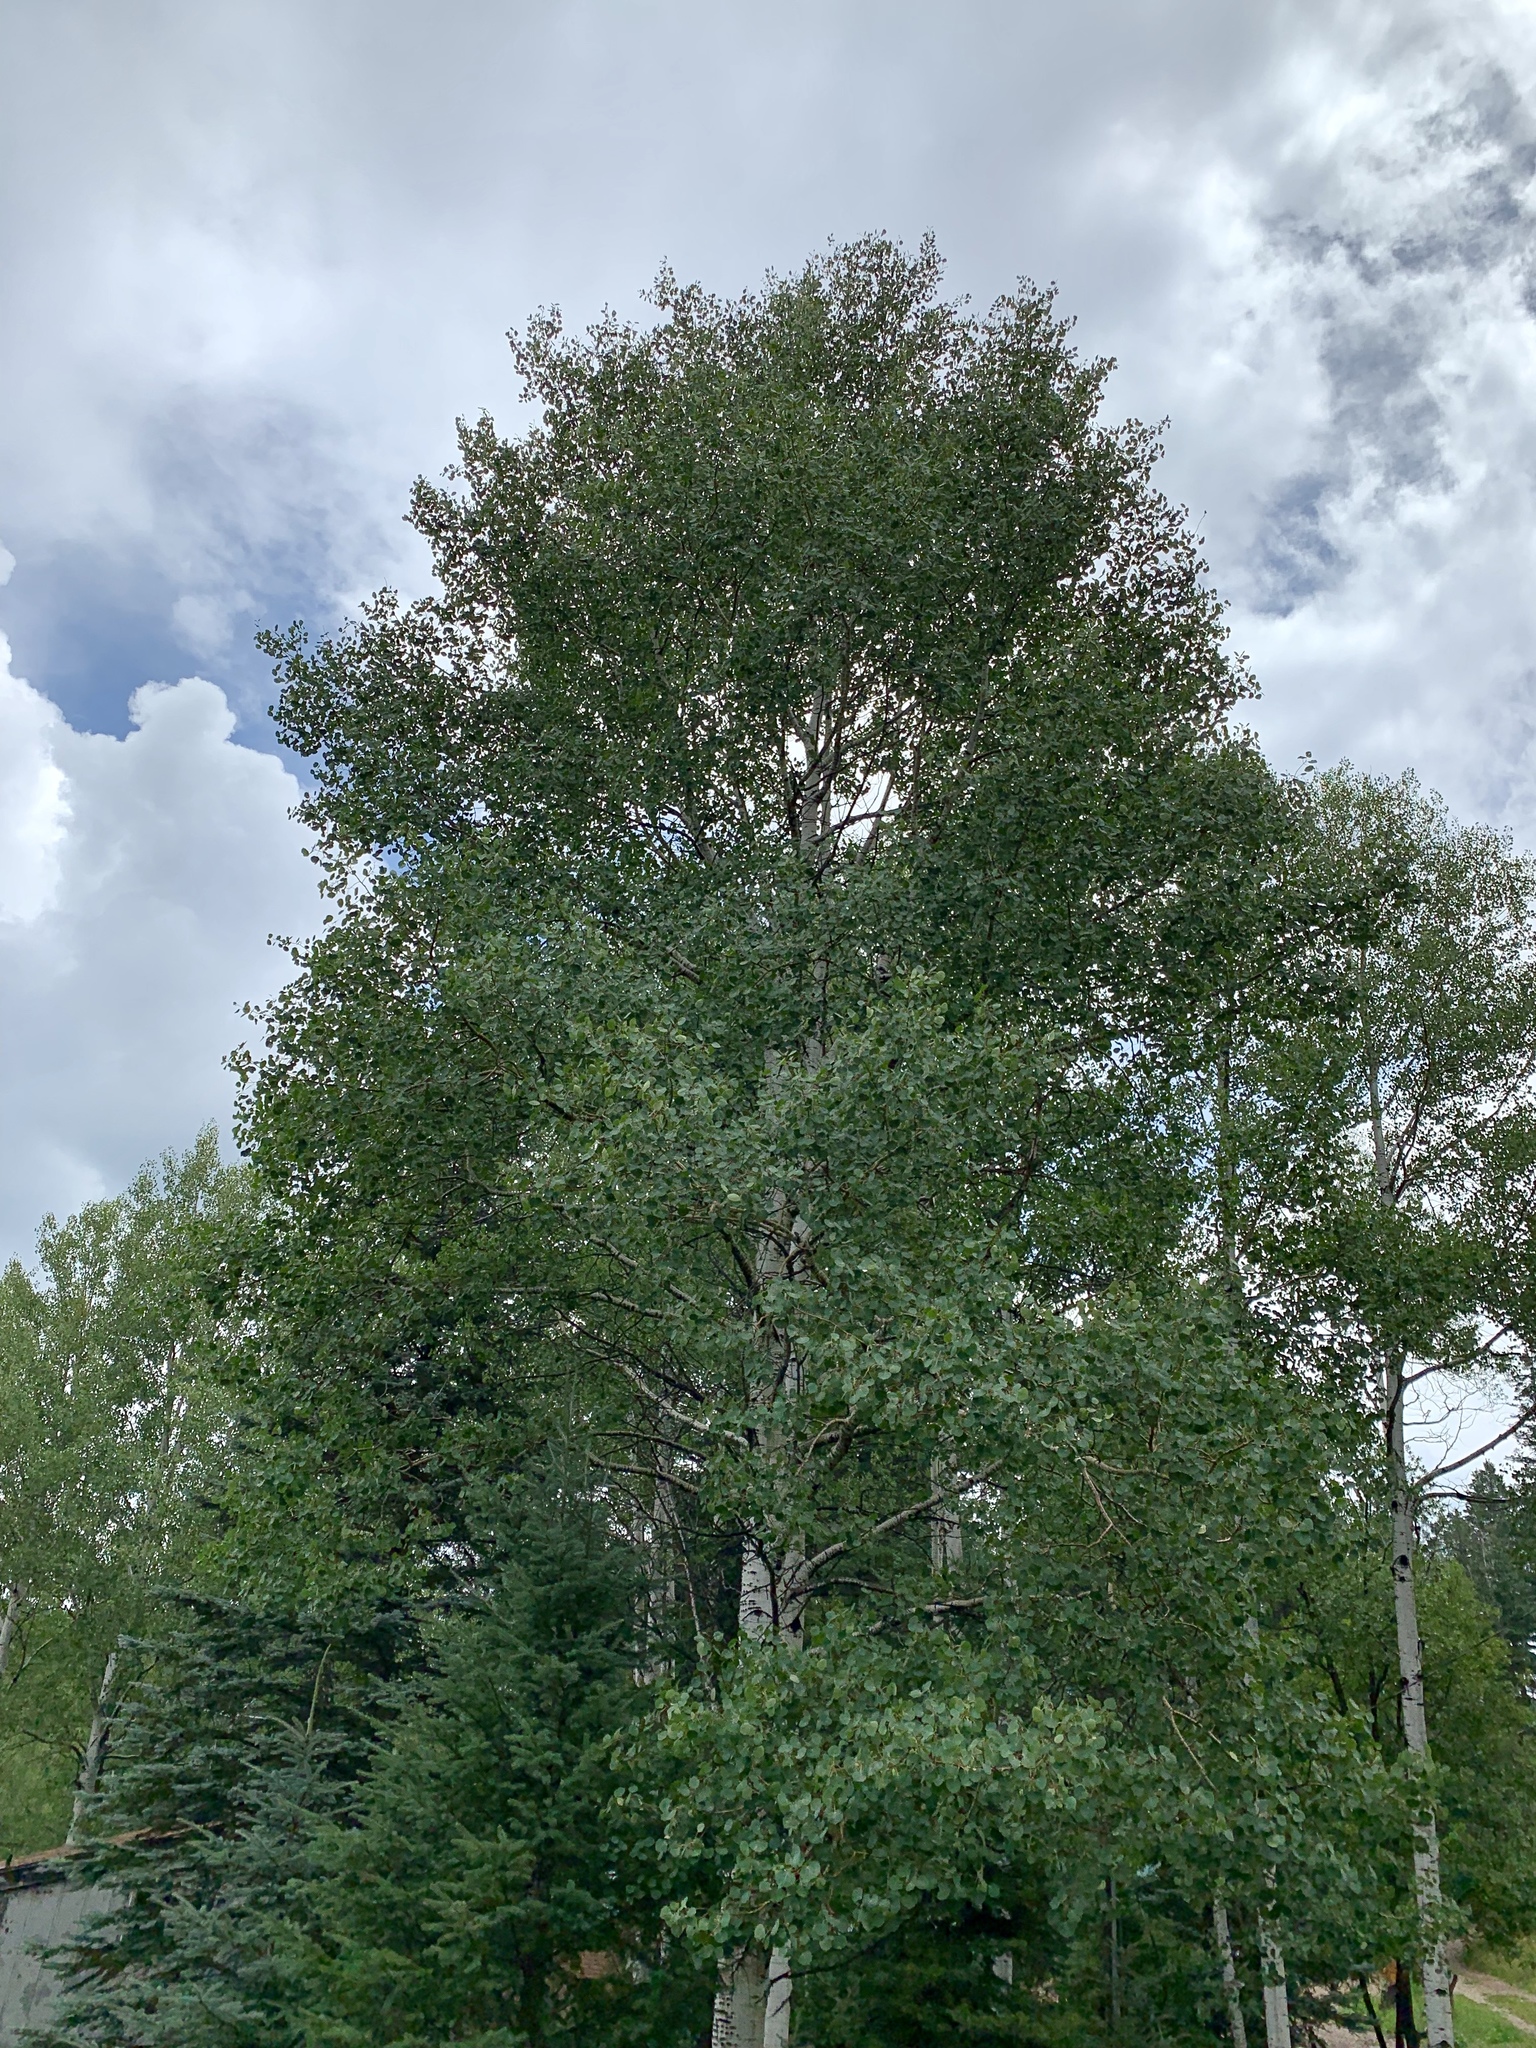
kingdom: Plantae
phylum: Tracheophyta
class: Magnoliopsida
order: Malpighiales
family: Salicaceae
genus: Populus
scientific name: Populus tremuloides
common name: Quaking aspen
